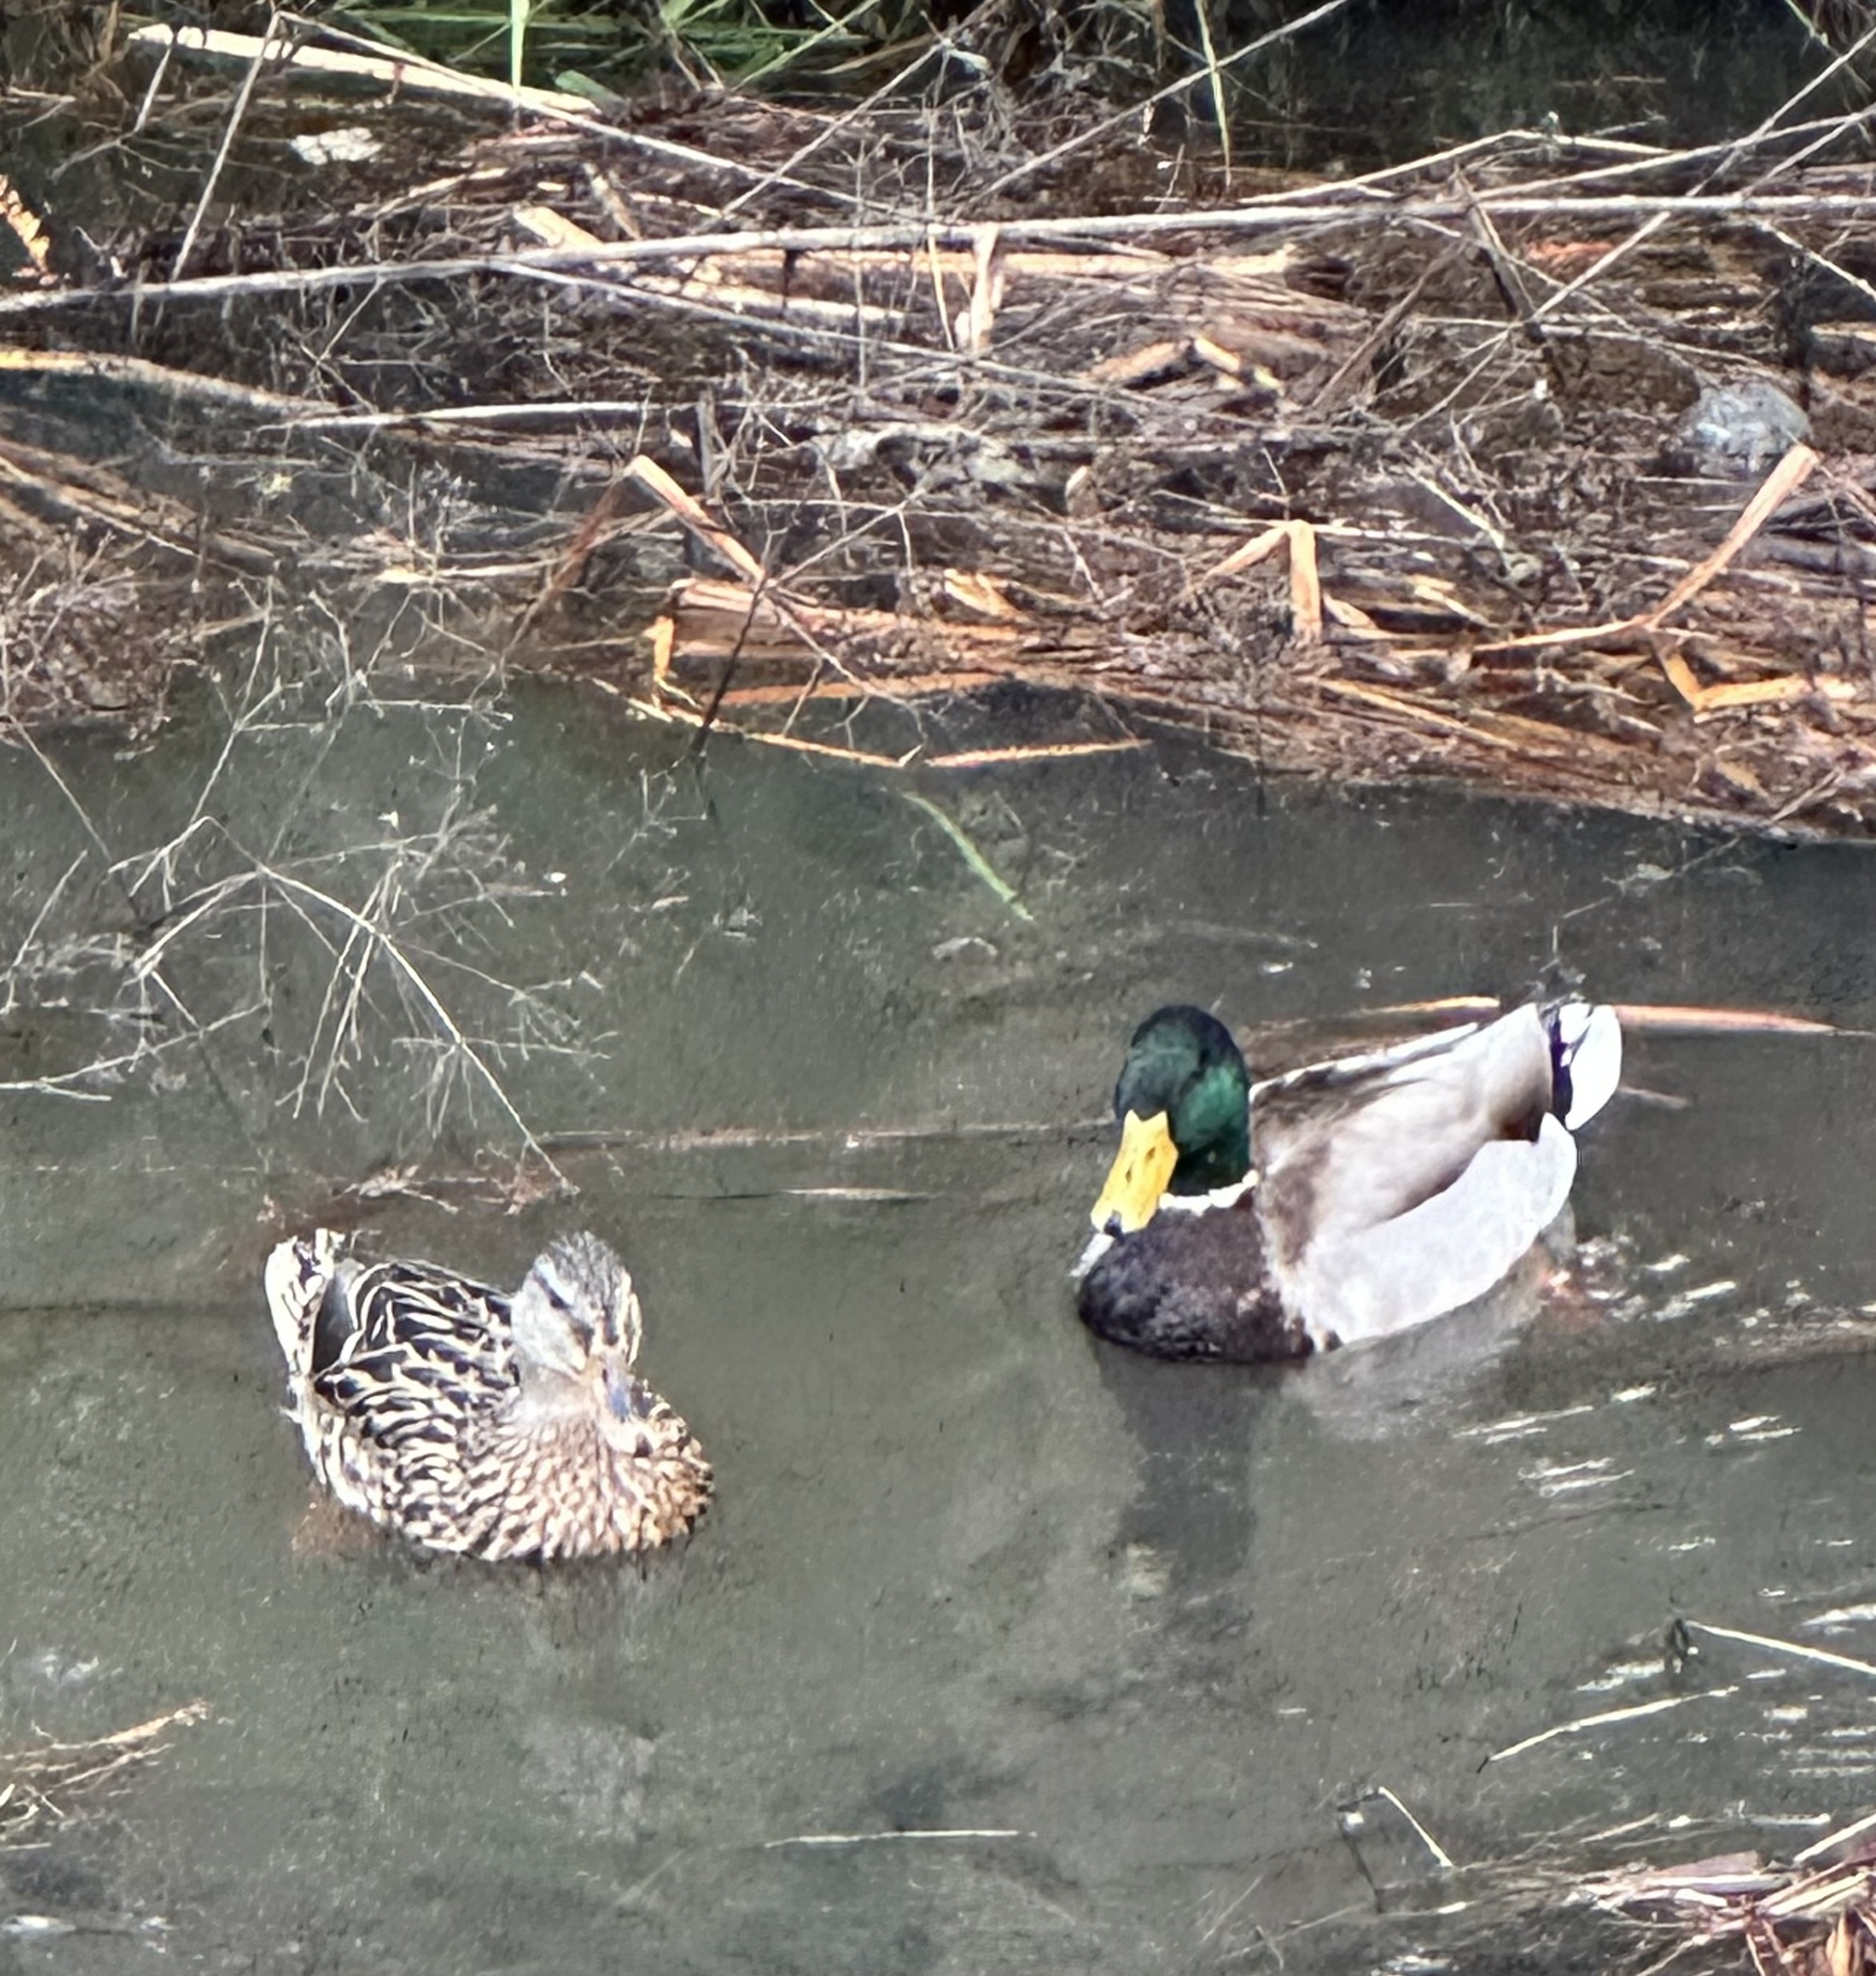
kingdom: Animalia
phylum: Chordata
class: Aves
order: Anseriformes
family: Anatidae
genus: Anas
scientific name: Anas platyrhynchos
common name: Mallard
